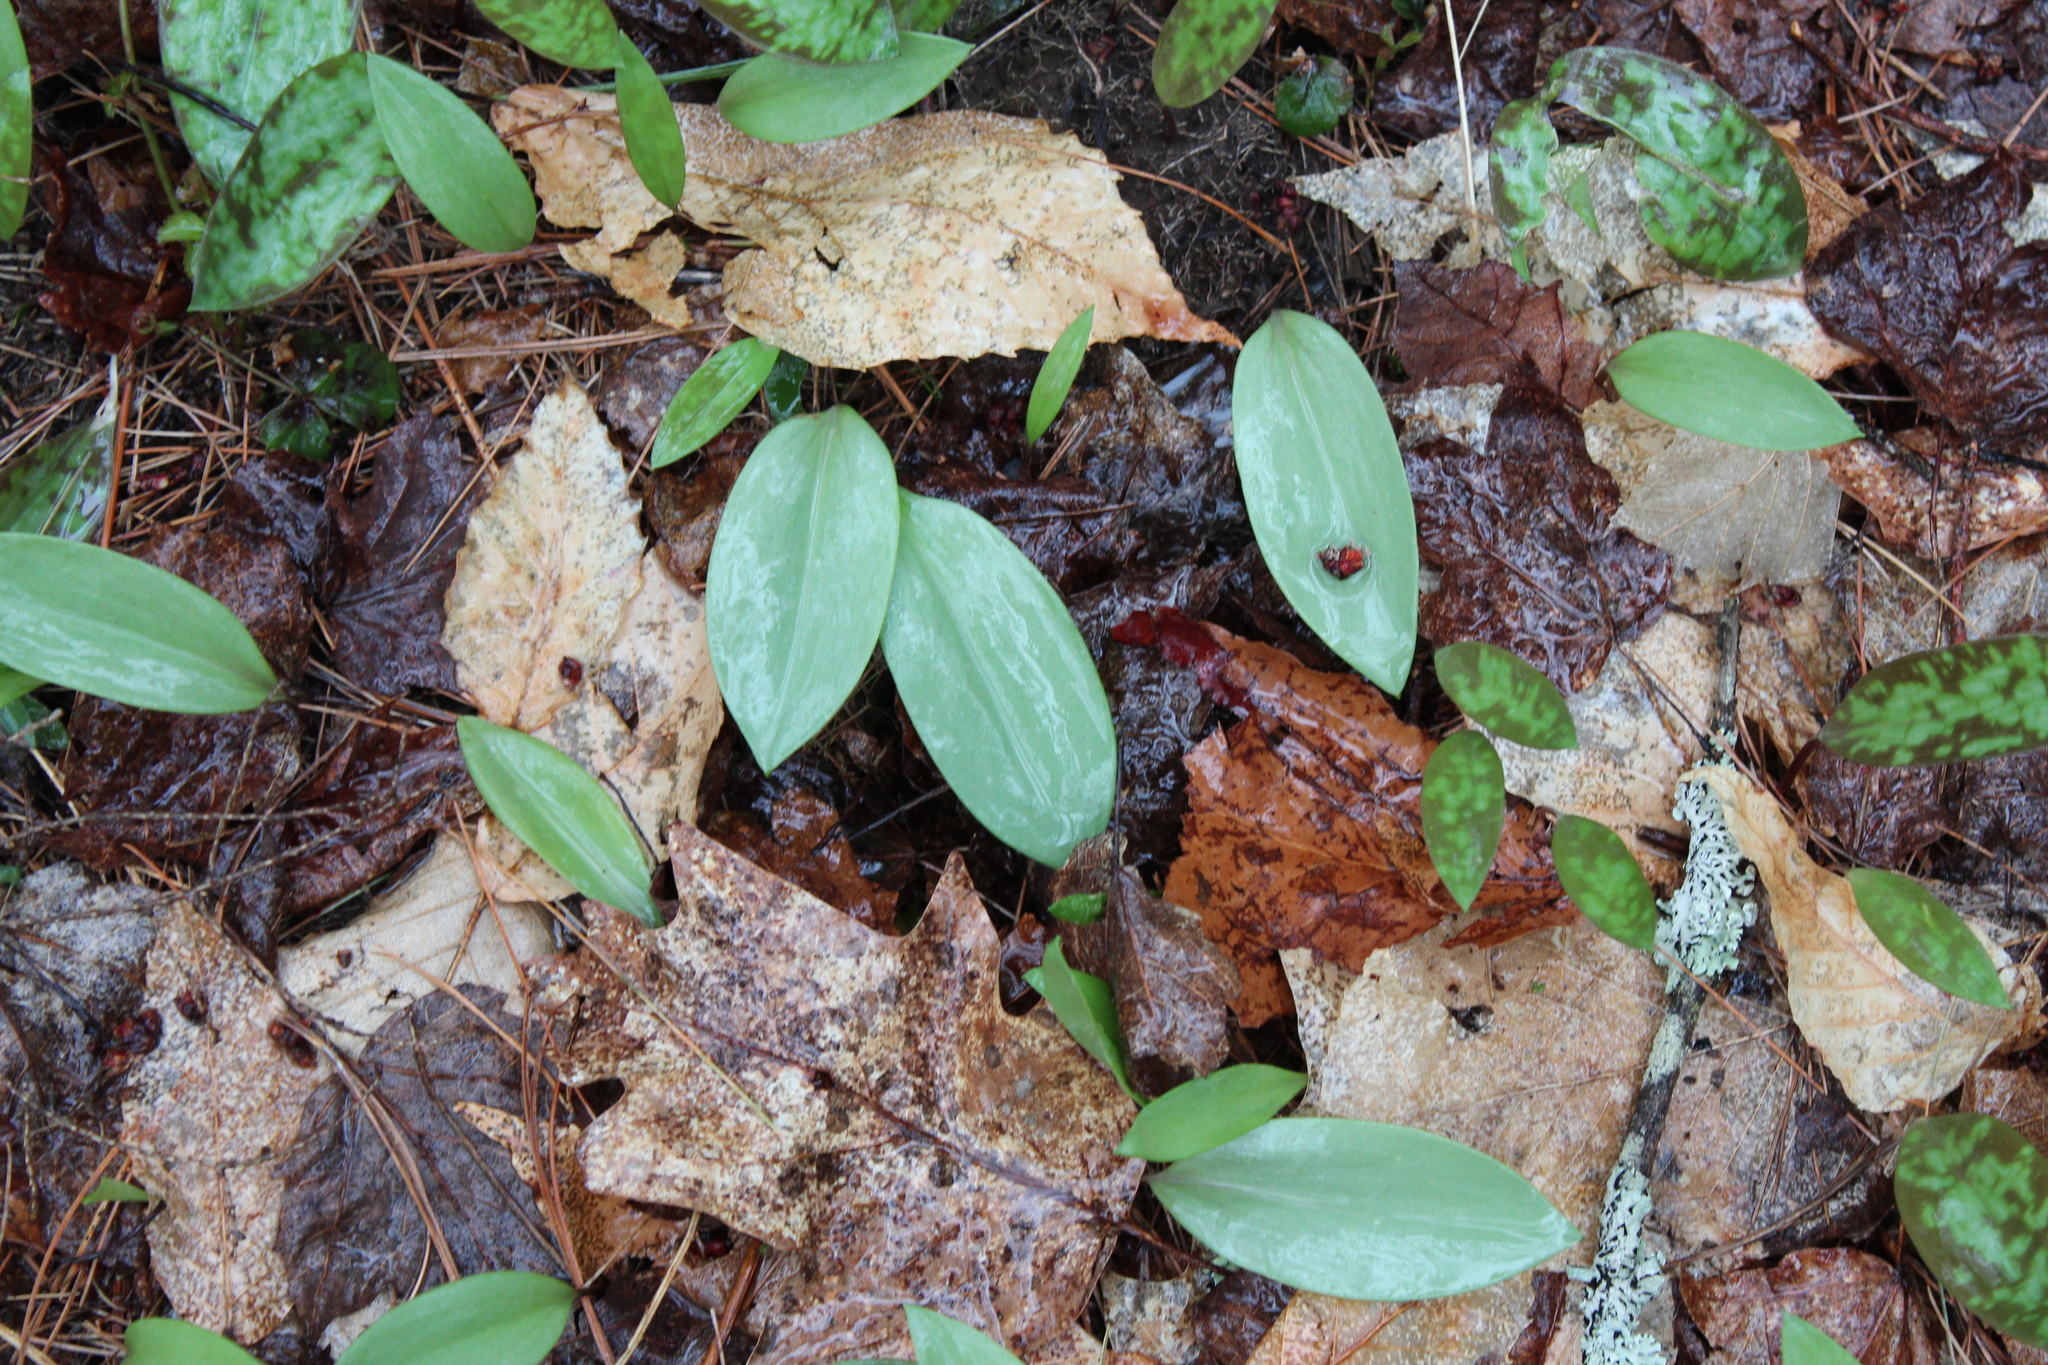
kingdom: Plantae
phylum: Tracheophyta
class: Liliopsida
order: Liliales
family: Liliaceae
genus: Erythronium
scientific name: Erythronium americanum
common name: Yellow adder's-tongue
